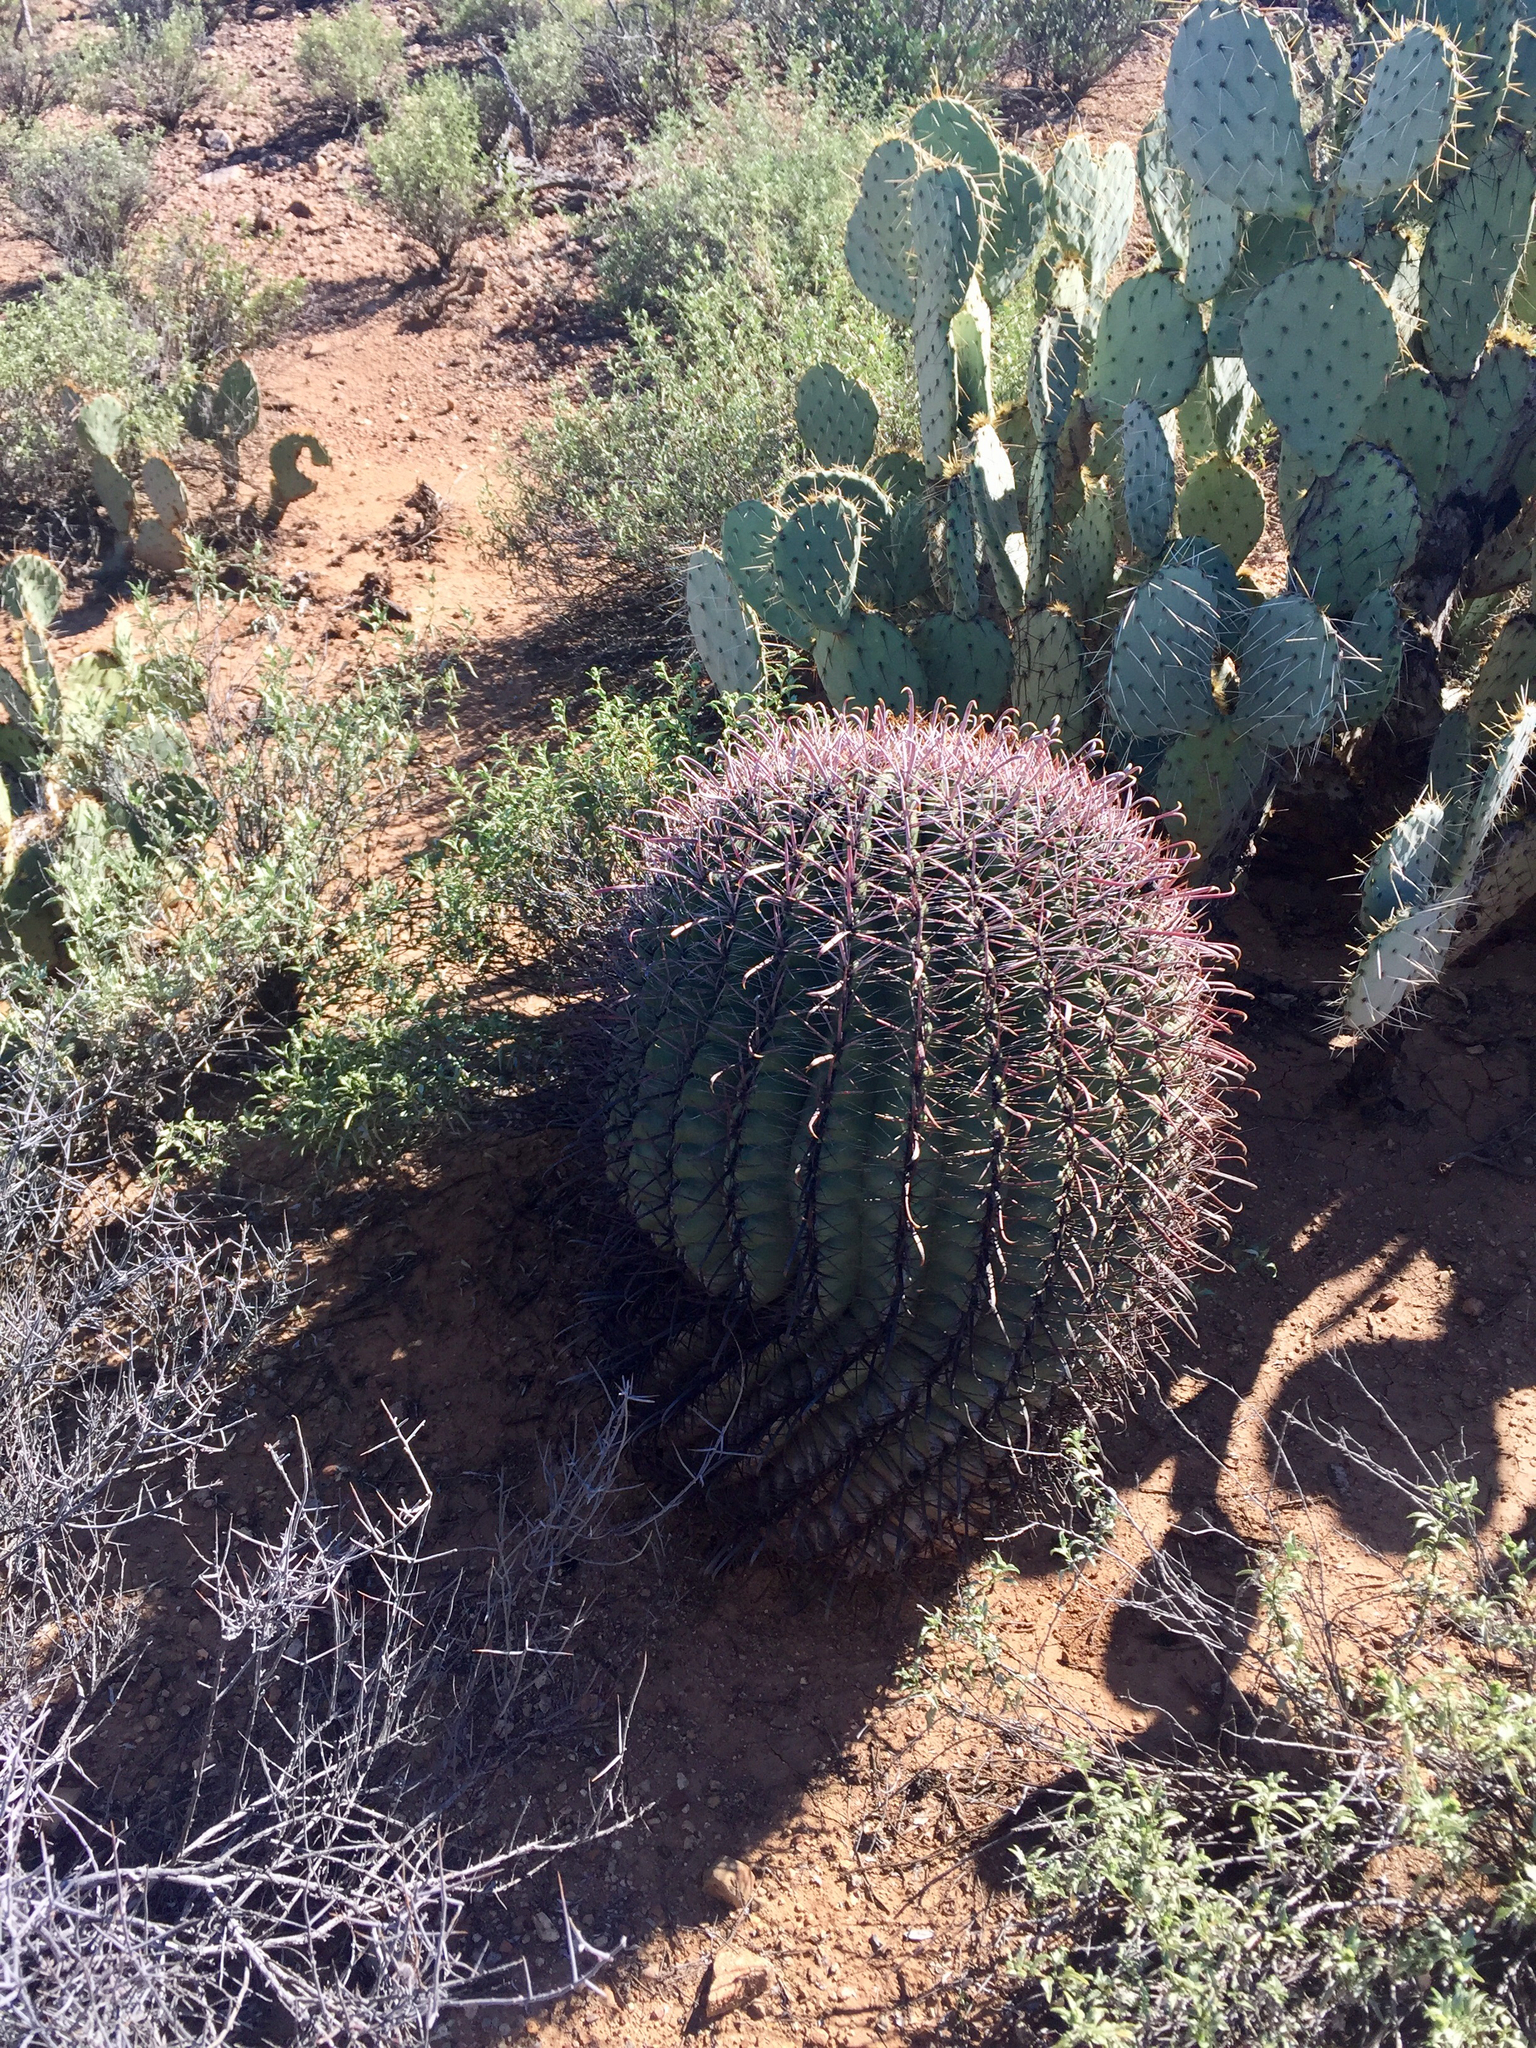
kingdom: Plantae
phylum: Tracheophyta
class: Magnoliopsida
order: Caryophyllales
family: Cactaceae
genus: Ferocactus
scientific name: Ferocactus wislizeni
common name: Candy barrel cactus
